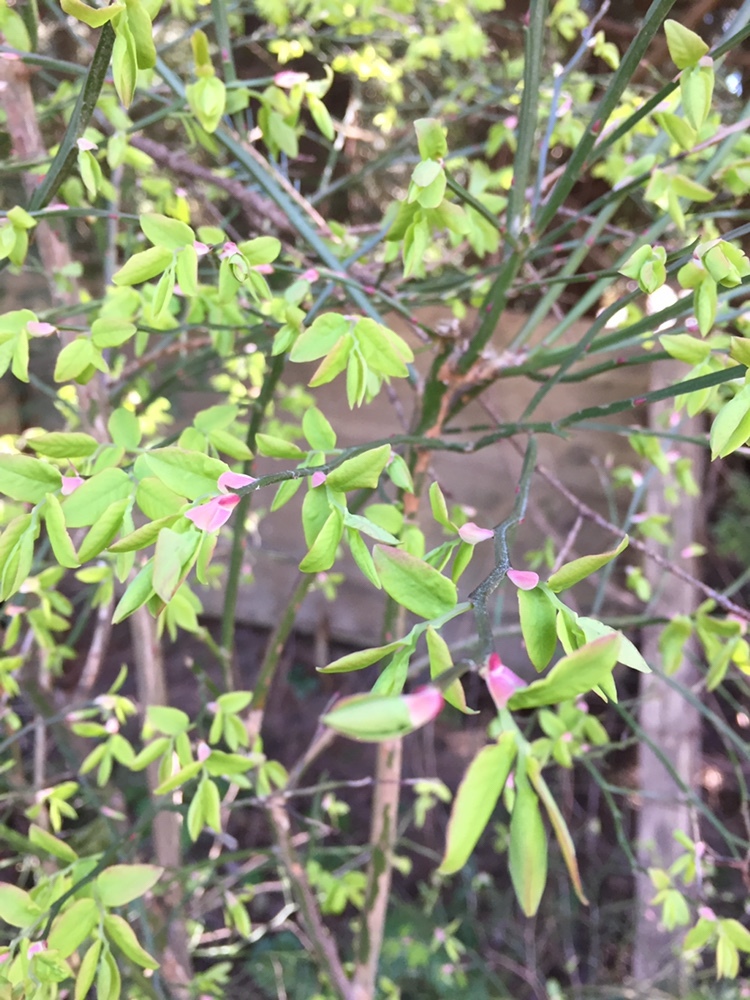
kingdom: Plantae
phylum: Tracheophyta
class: Magnoliopsida
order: Ericales
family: Ericaceae
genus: Vaccinium
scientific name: Vaccinium parvifolium
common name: Red-huckleberry
